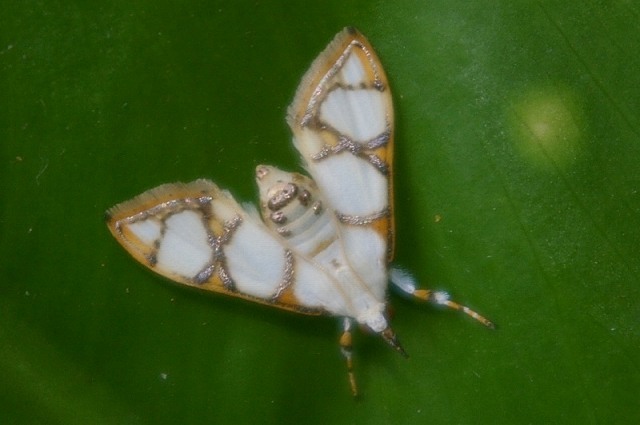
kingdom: Animalia
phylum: Arthropoda
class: Insecta
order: Lepidoptera
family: Crambidae
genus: Cirrhochrista
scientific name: Cirrhochrista kosemponialis
